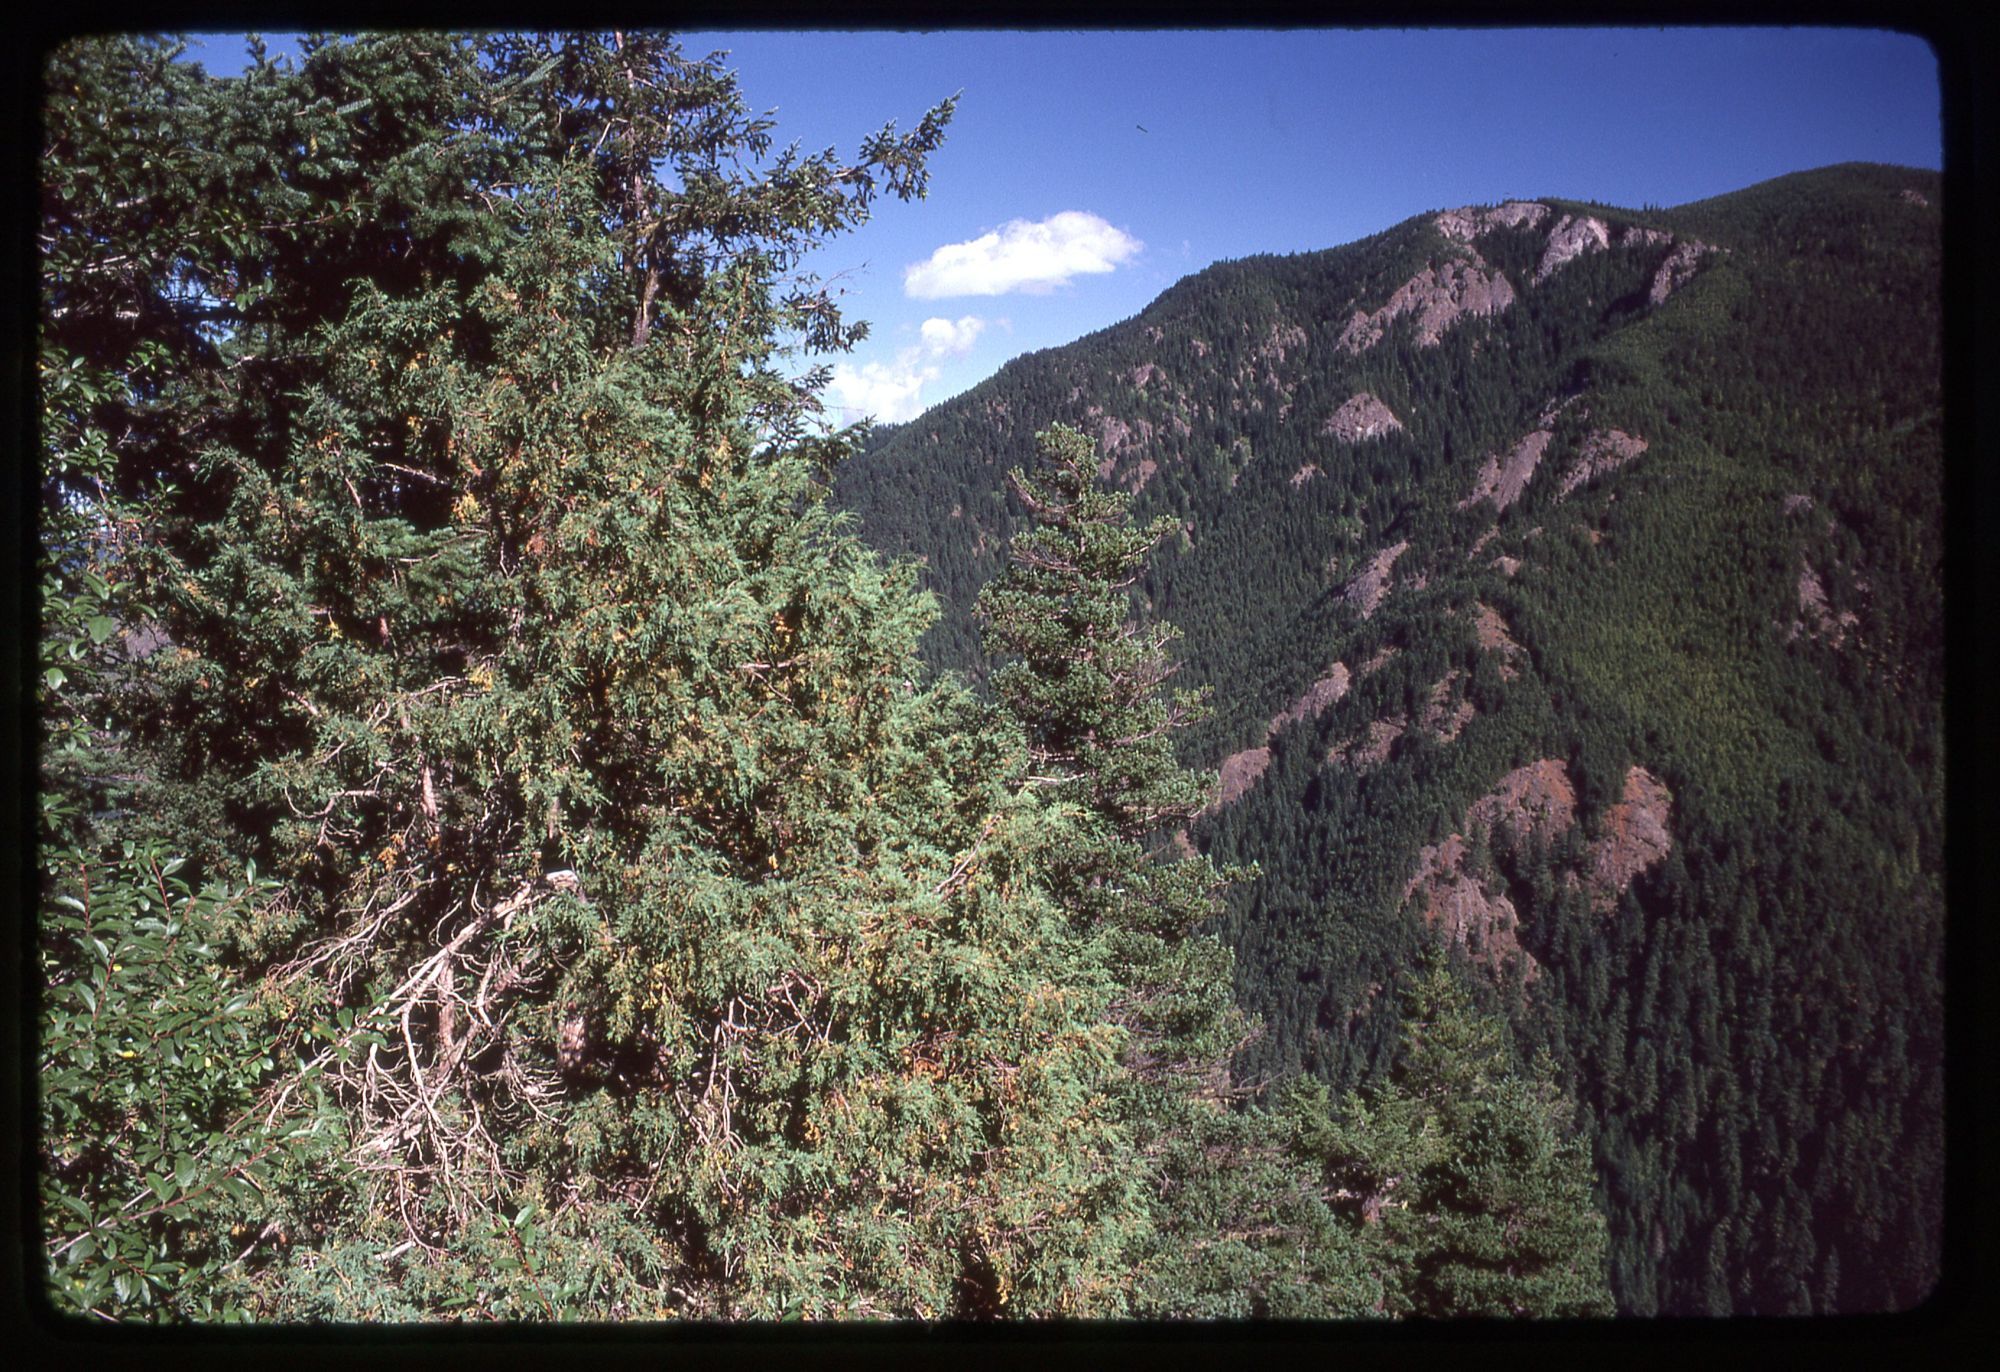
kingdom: Plantae
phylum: Tracheophyta
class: Pinopsida
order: Pinales
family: Cupressaceae
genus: Juniperus
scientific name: Juniperus scopulorum
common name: Rocky mountain juniper
